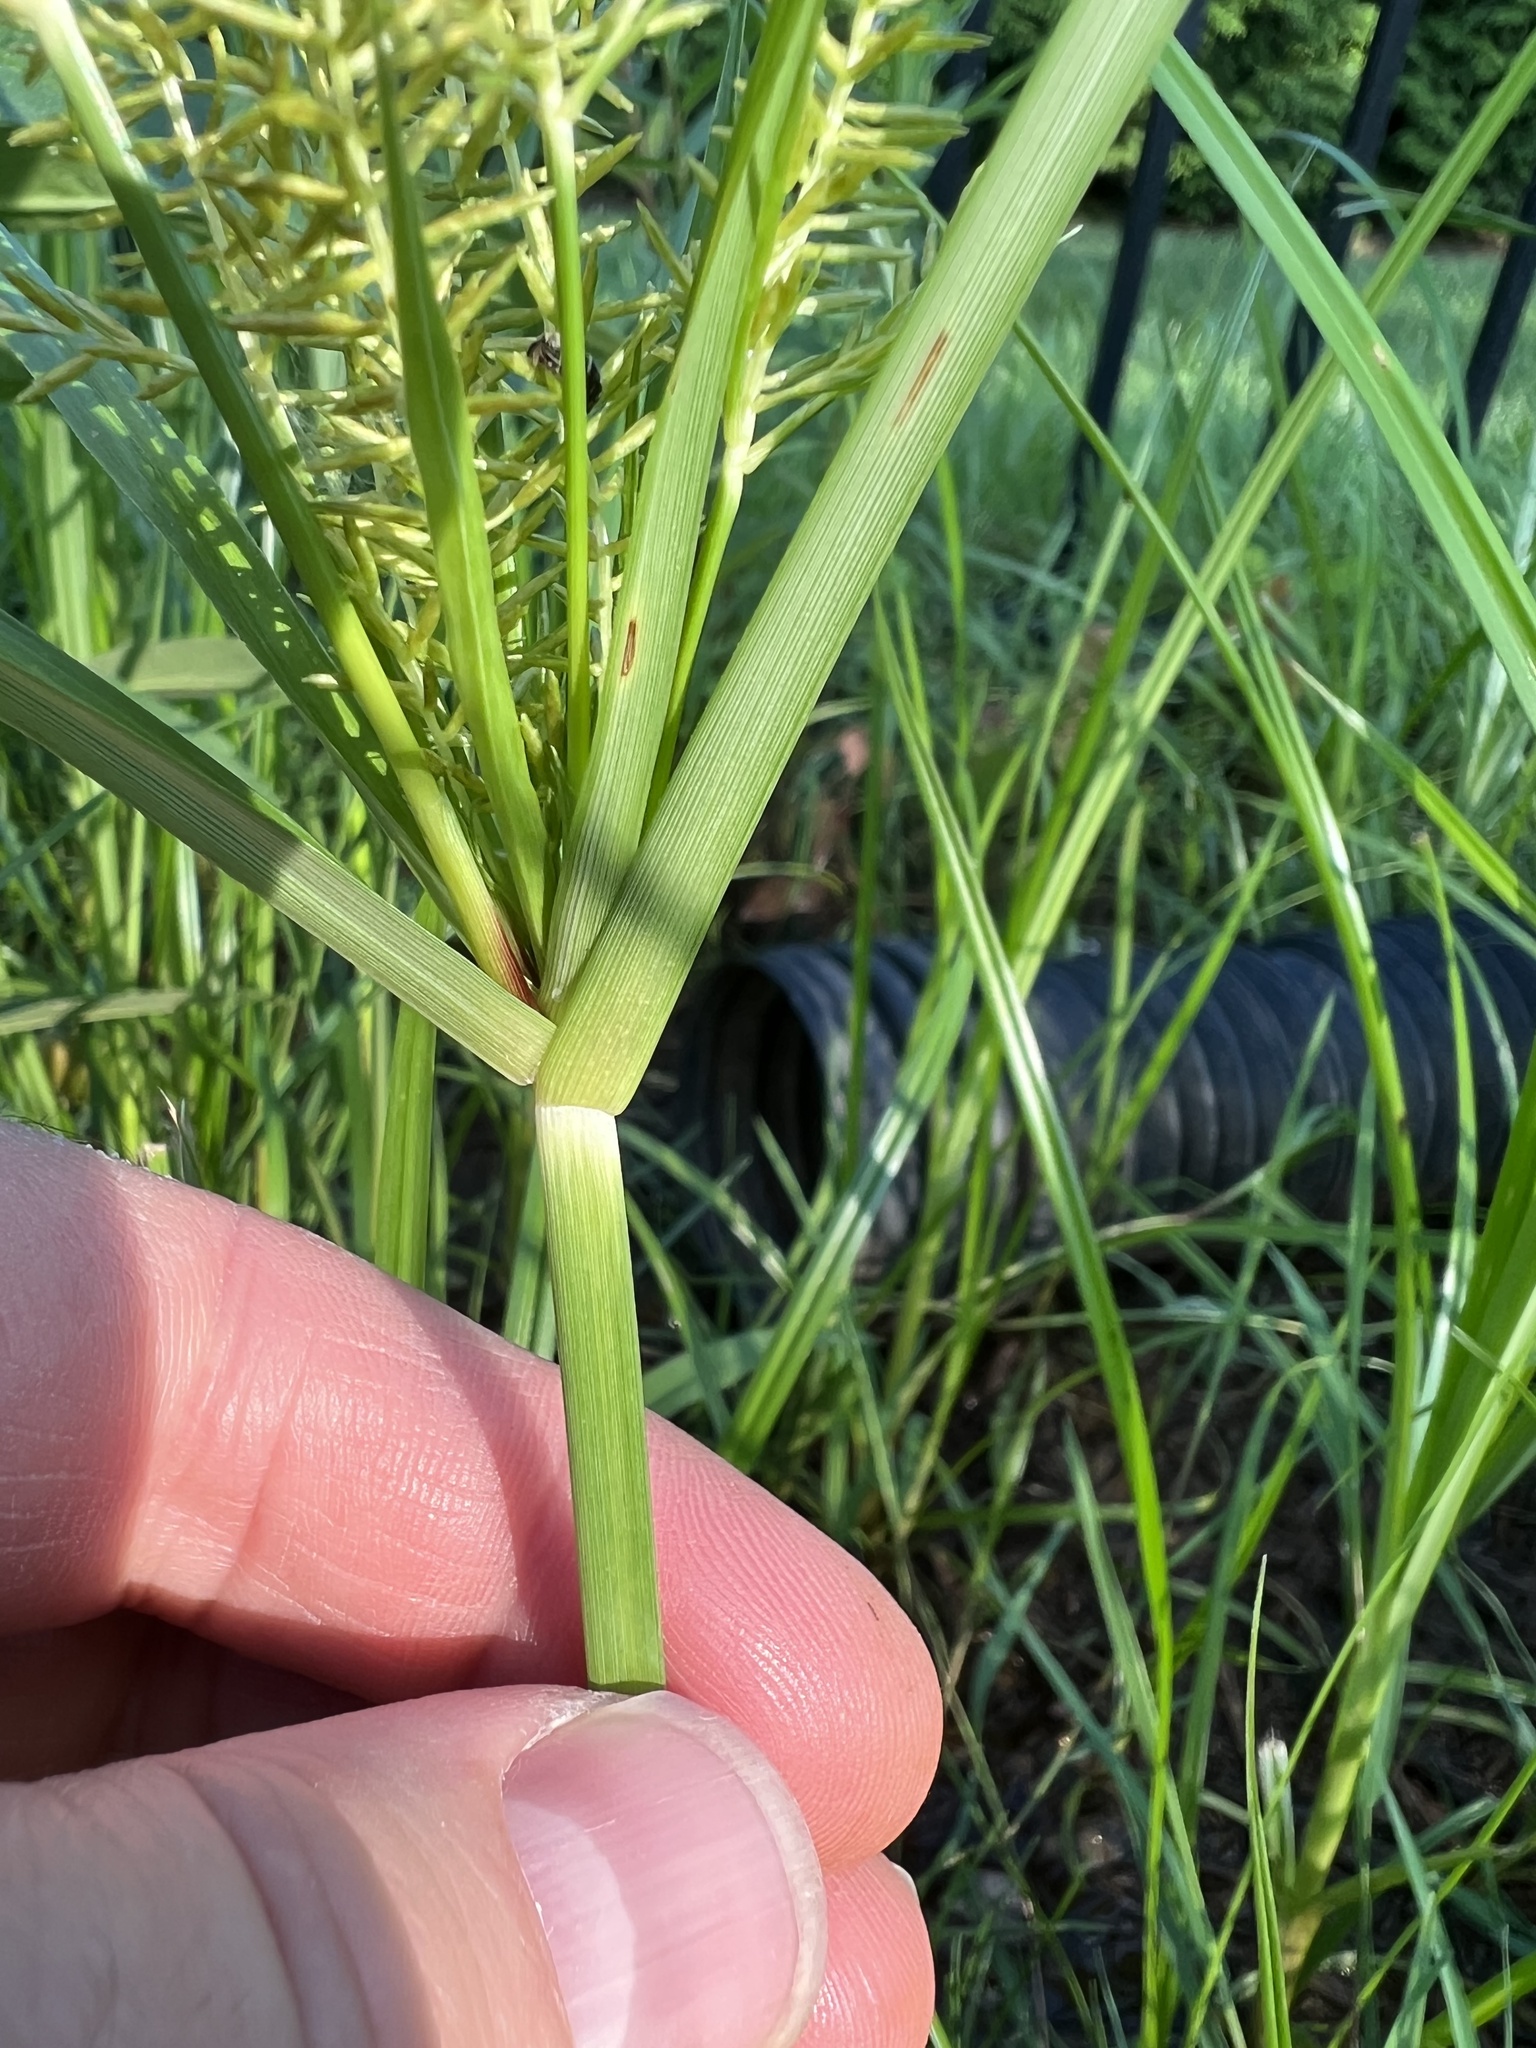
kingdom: Plantae
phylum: Tracheophyta
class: Liliopsida
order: Poales
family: Cyperaceae
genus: Cyperus
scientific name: Cyperus esculentus
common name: Yellow nutsedge
